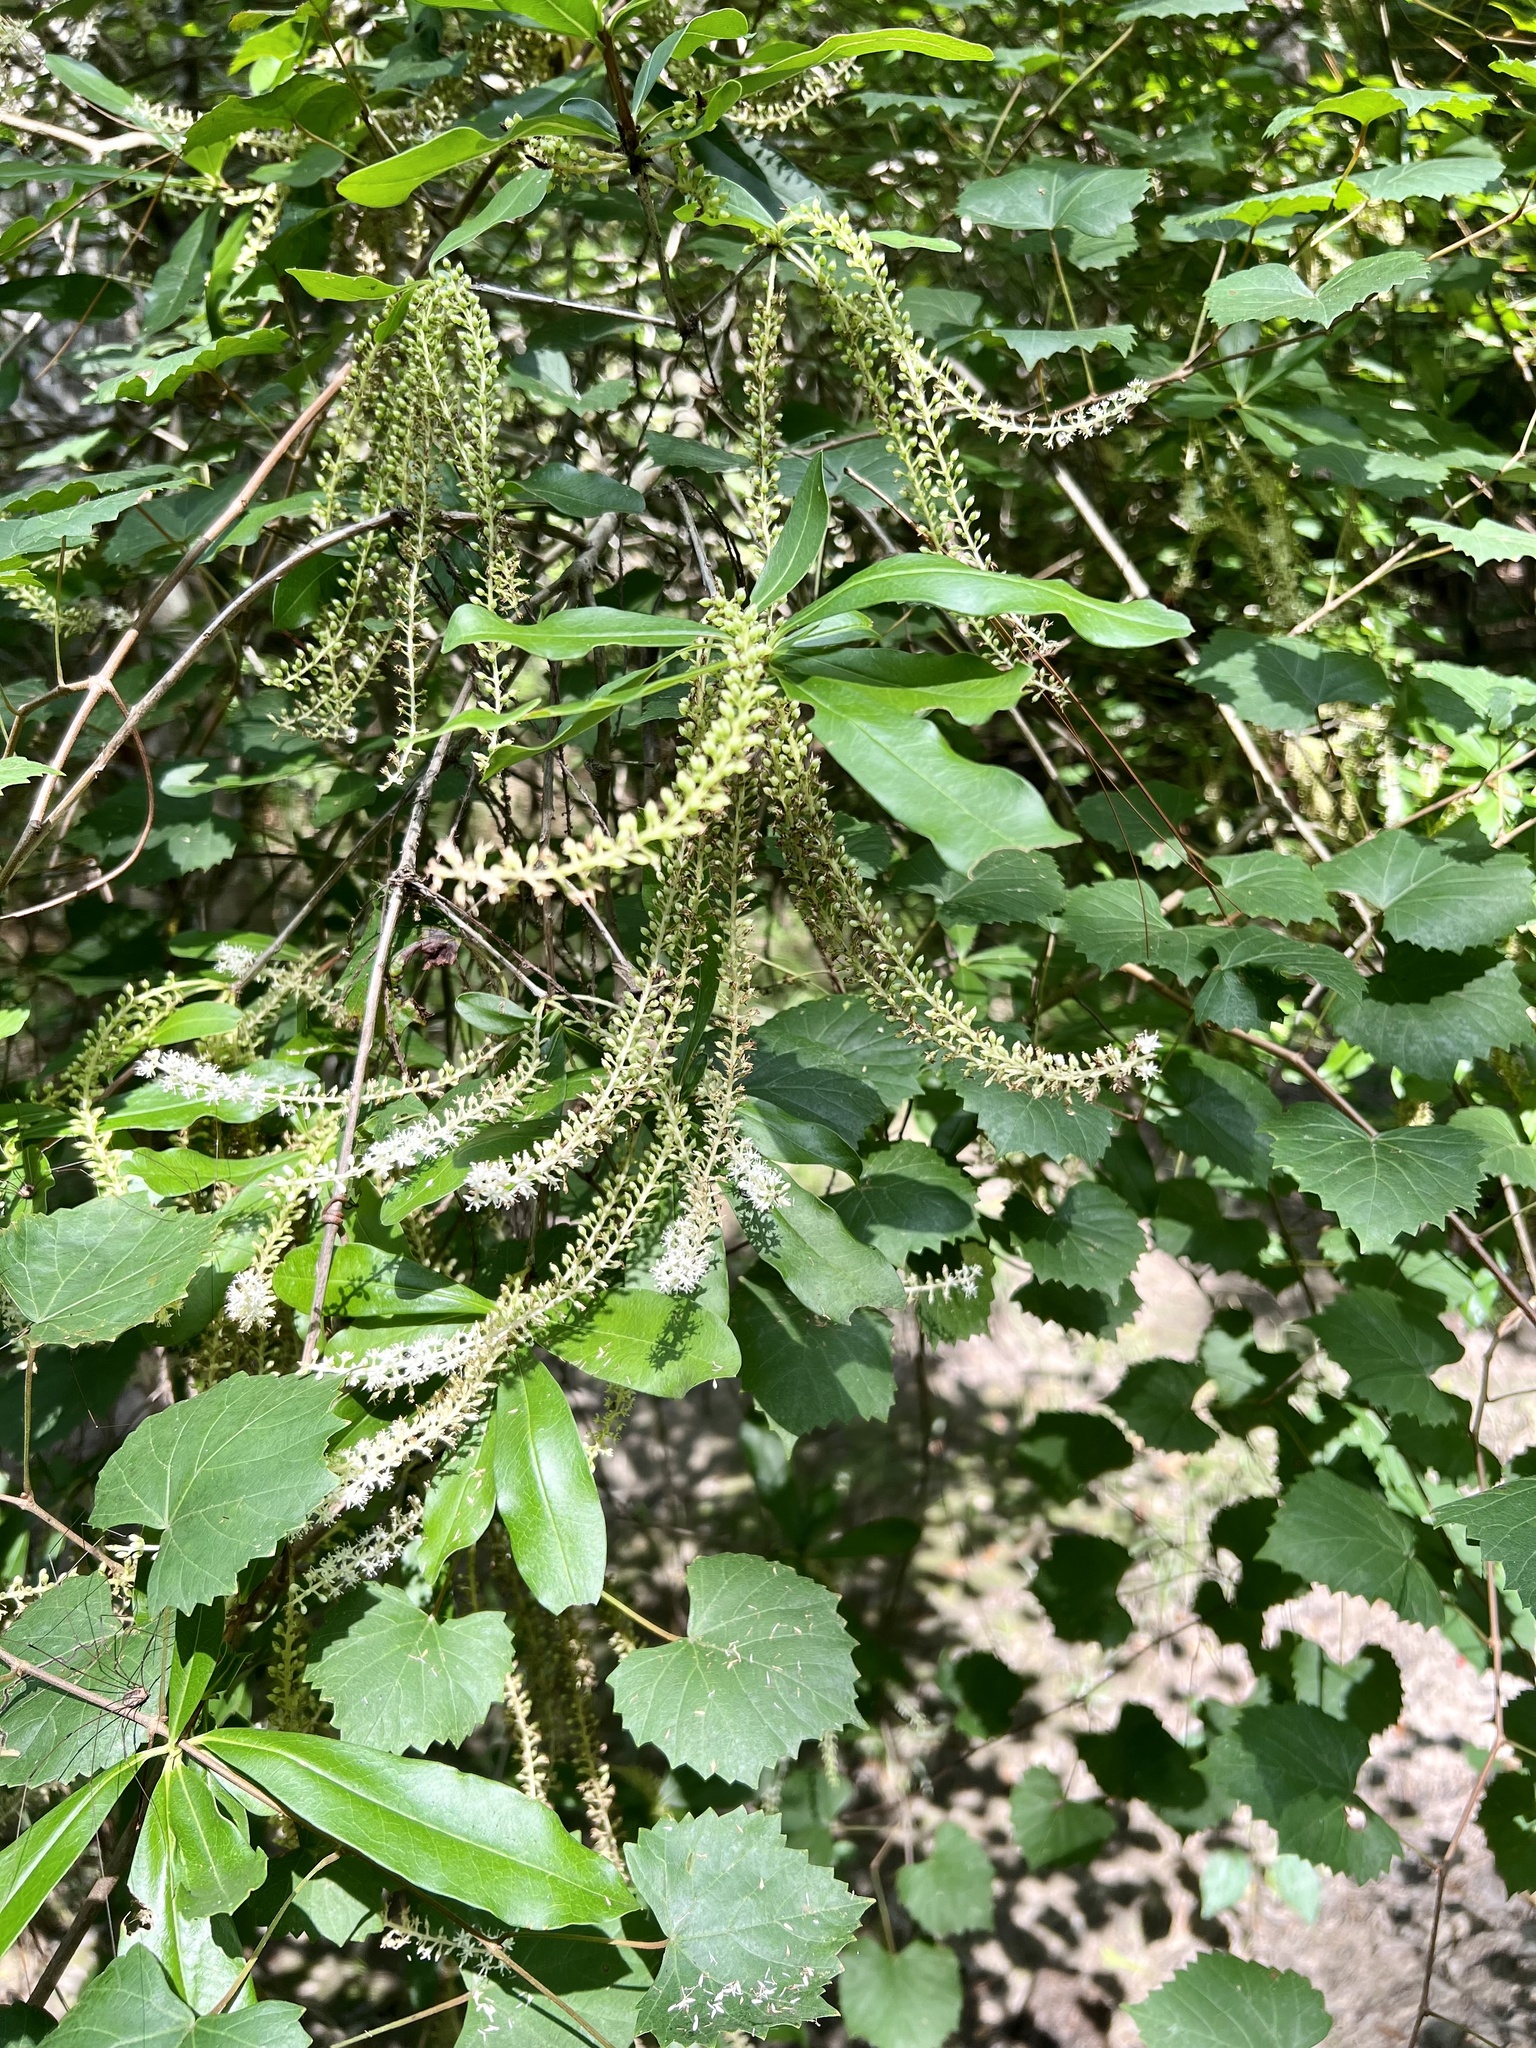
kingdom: Plantae
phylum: Tracheophyta
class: Magnoliopsida
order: Ericales
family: Cyrillaceae
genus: Cyrilla
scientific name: Cyrilla racemiflora
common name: Black titi
